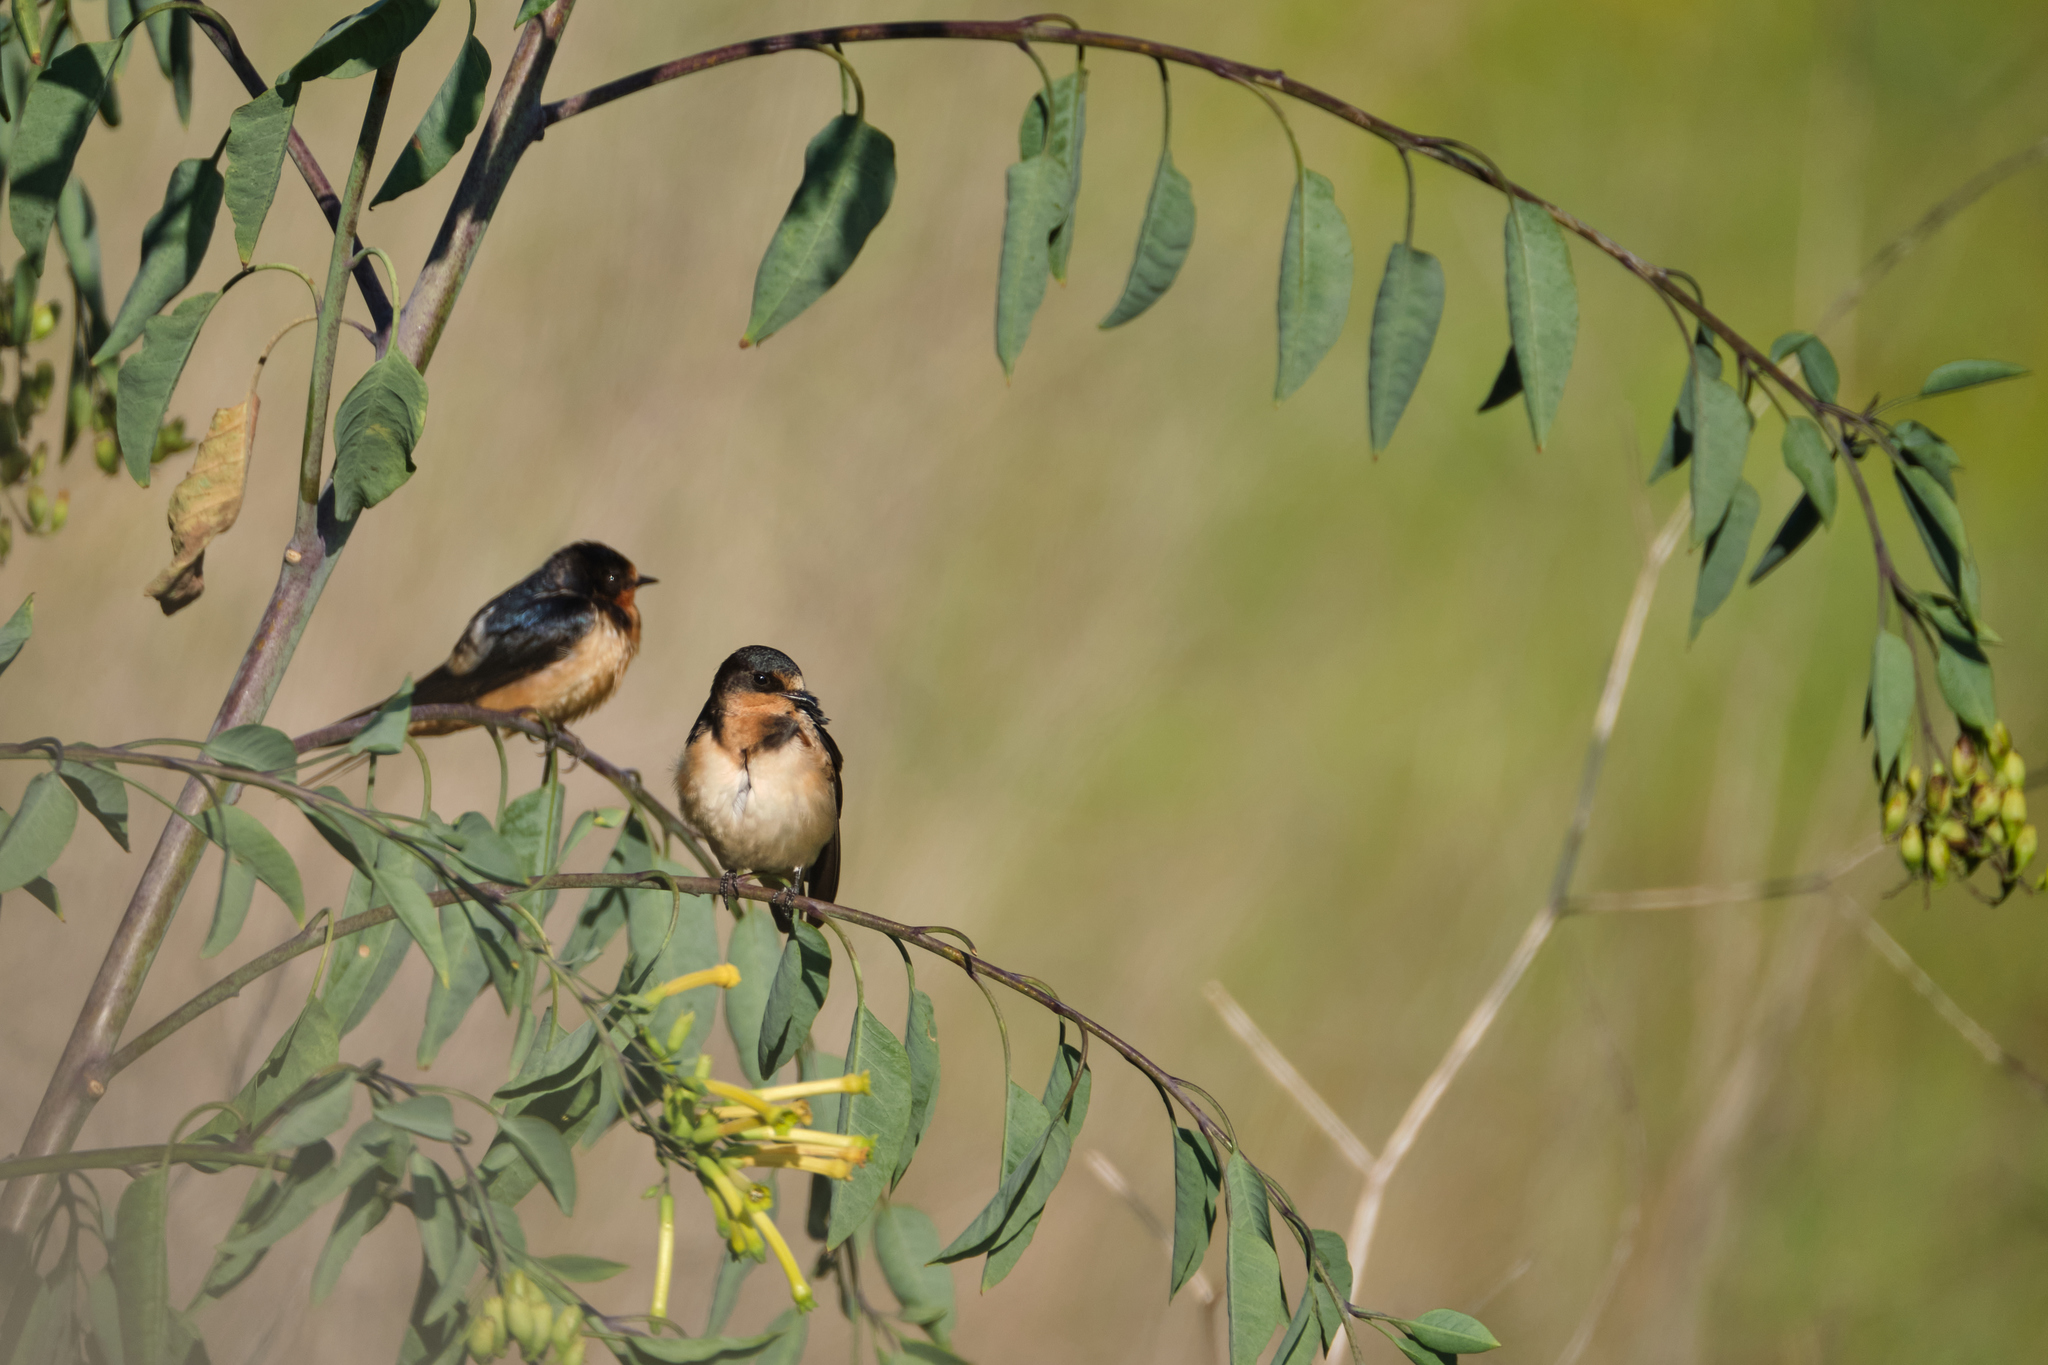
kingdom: Animalia
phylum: Chordata
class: Aves
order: Passeriformes
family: Hirundinidae
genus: Hirundo
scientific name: Hirundo rustica
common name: Barn swallow
